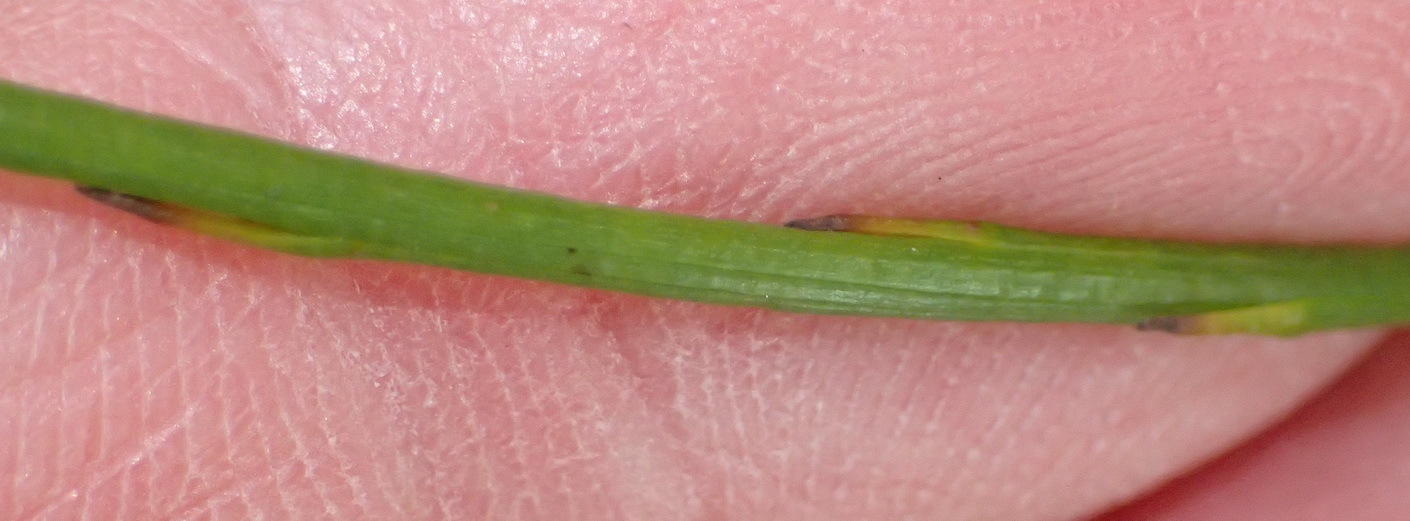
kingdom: Plantae
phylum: Tracheophyta
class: Magnoliopsida
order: Santalales
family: Thesiaceae
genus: Thesium
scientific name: Thesium spicatum
